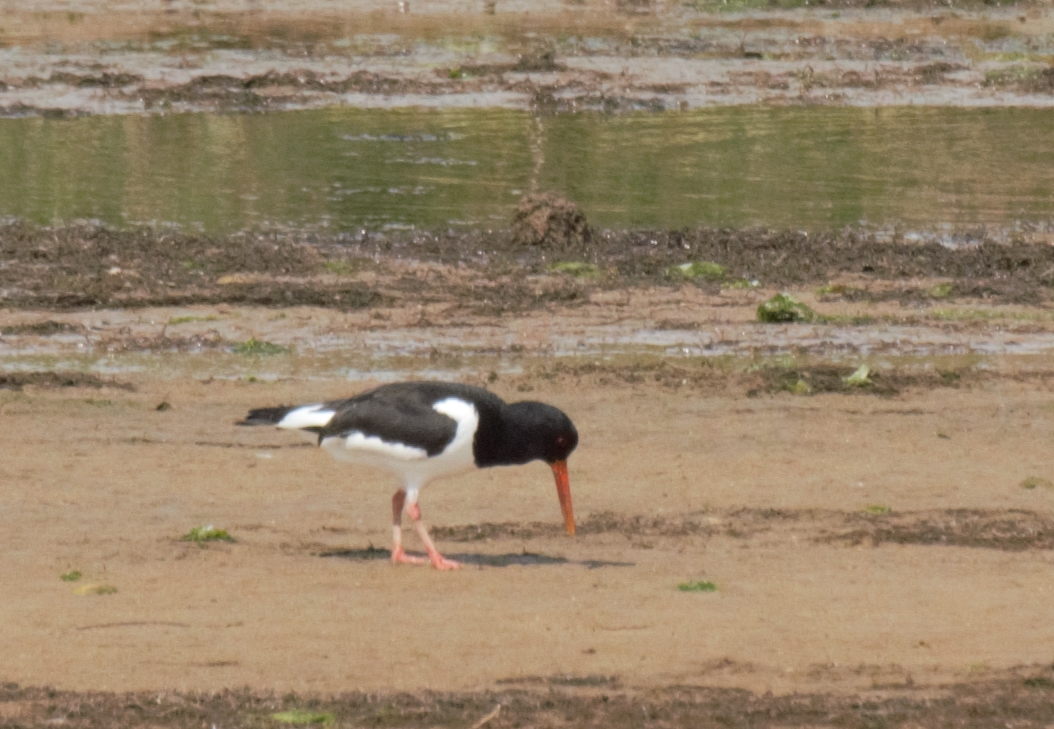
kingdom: Animalia
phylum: Chordata
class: Aves
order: Charadriiformes
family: Haematopodidae
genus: Haematopus
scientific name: Haematopus ostralegus
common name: Eurasian oystercatcher
